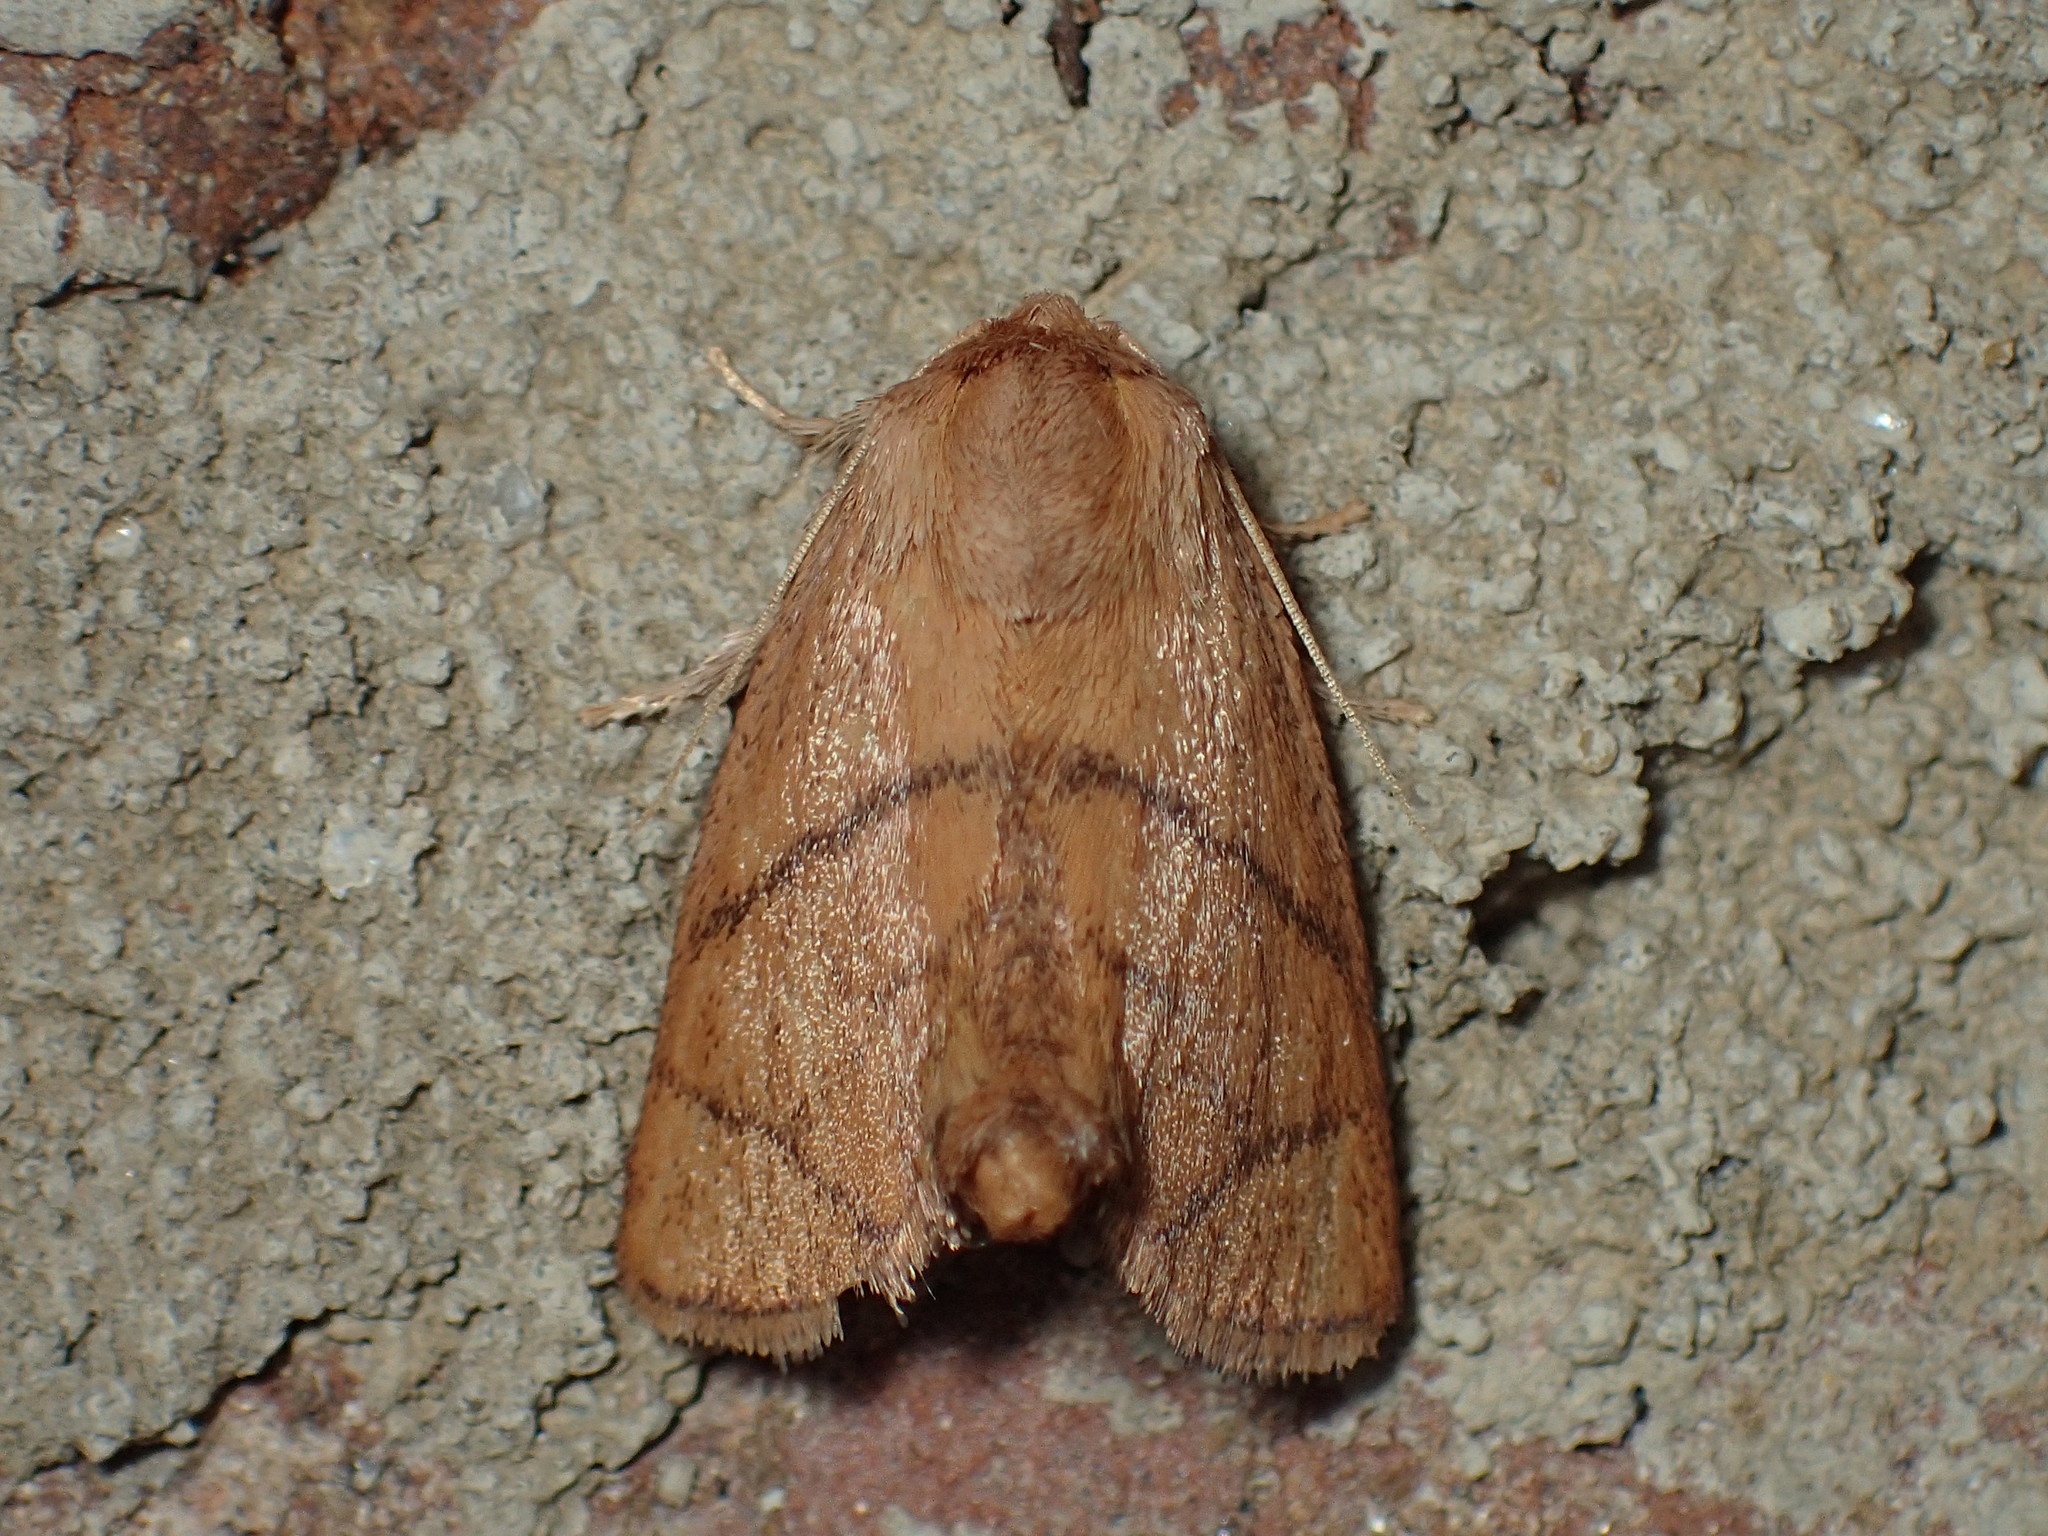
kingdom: Animalia
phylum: Arthropoda
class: Insecta
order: Lepidoptera
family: Limacodidae
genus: Apoda
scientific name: Apoda y-inversa
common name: Yellow-collared slug moth
